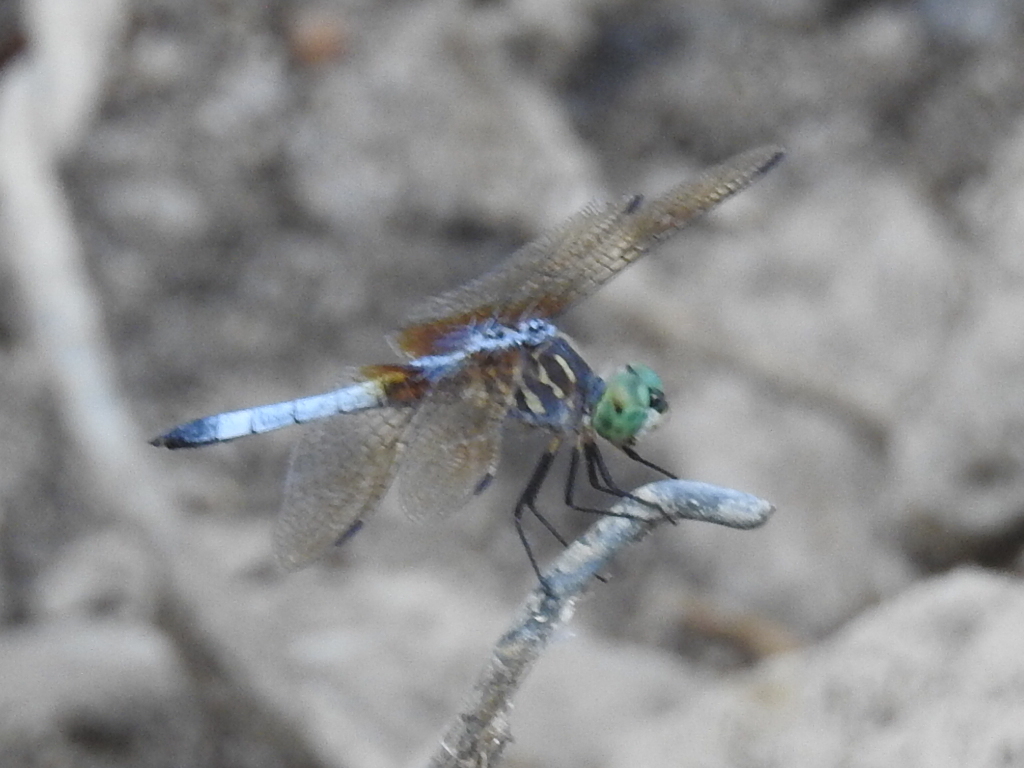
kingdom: Animalia
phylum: Arthropoda
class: Insecta
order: Odonata
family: Libellulidae
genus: Pachydiplax
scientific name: Pachydiplax longipennis
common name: Blue dasher
